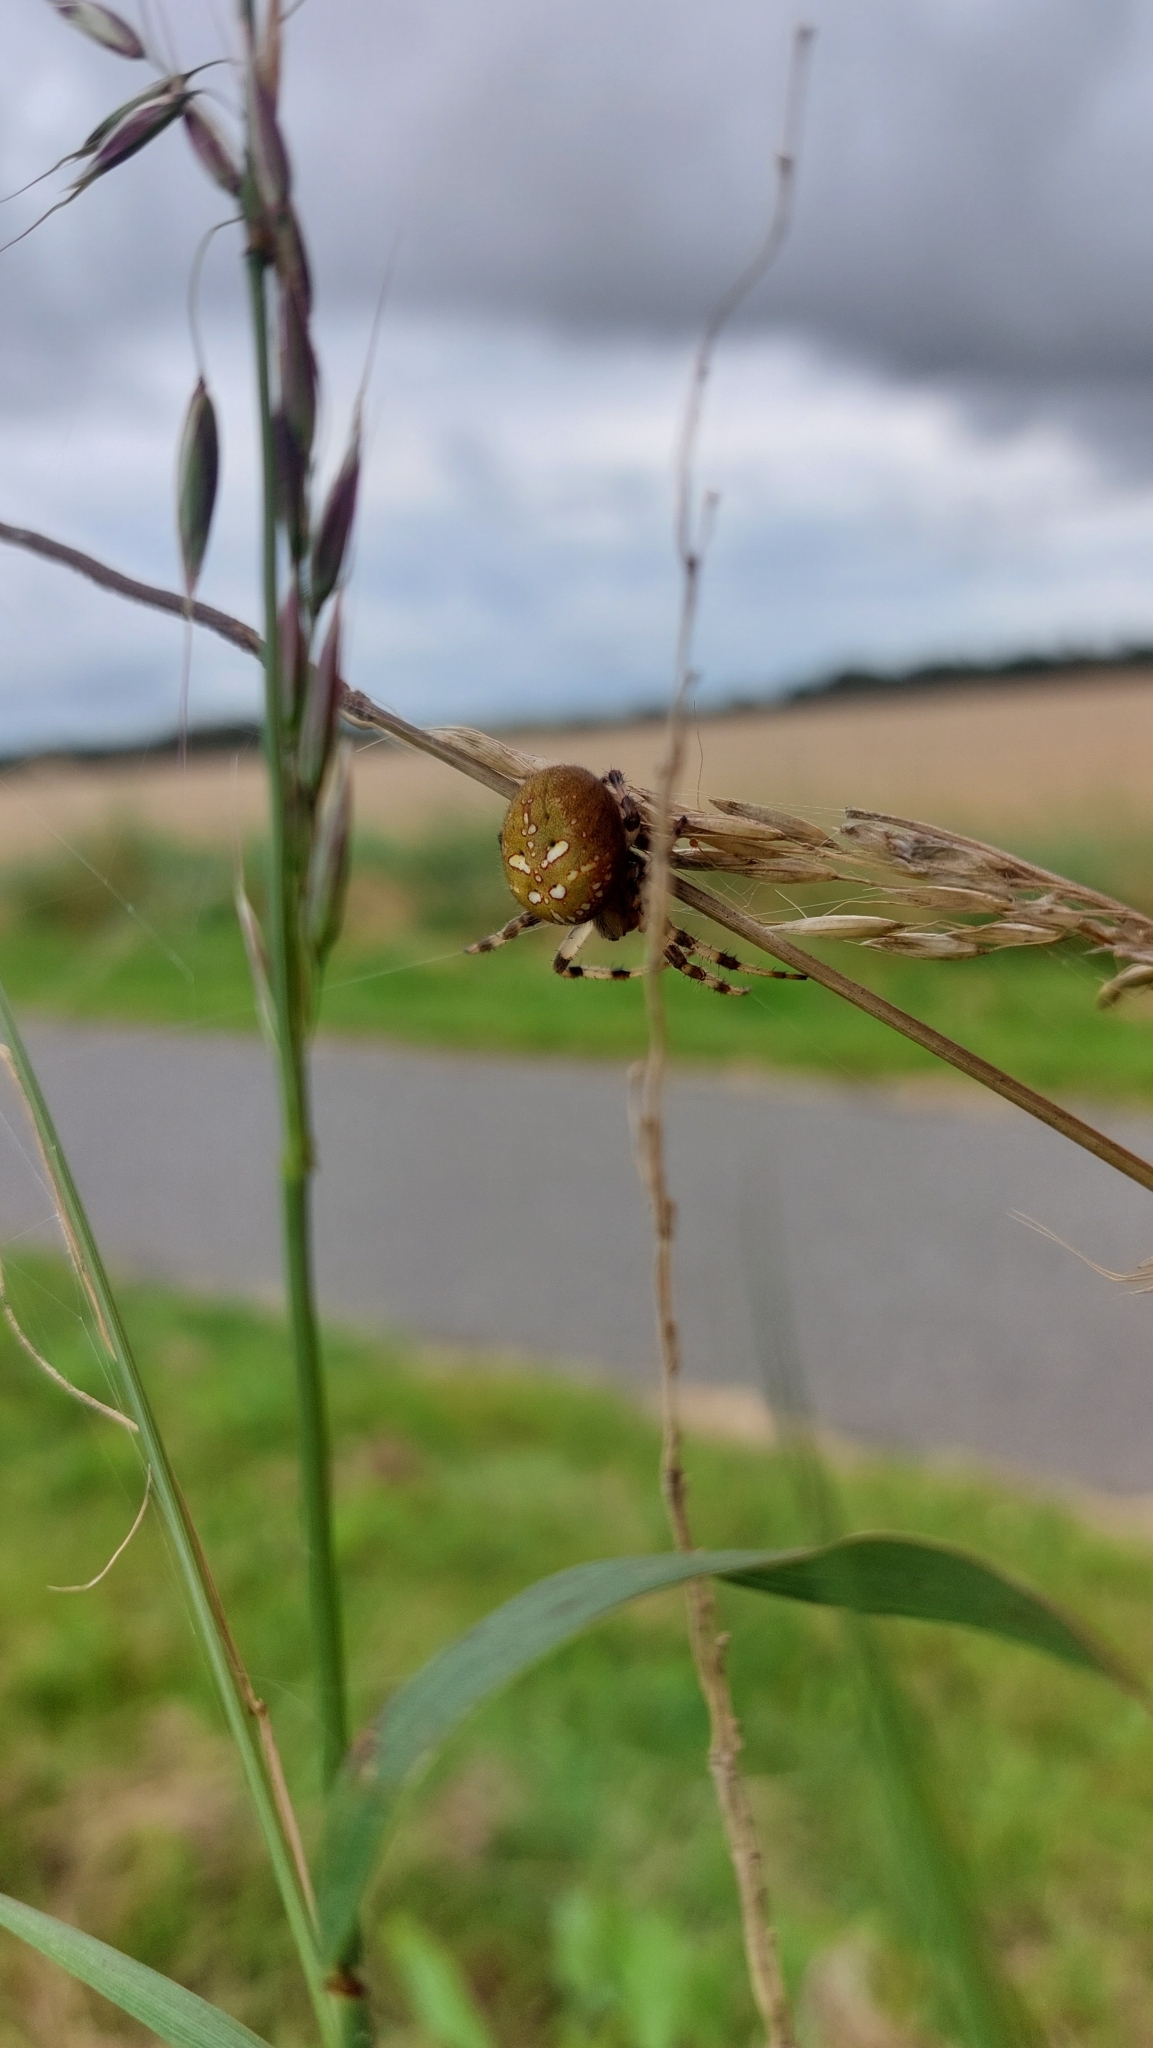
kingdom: Animalia
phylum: Arthropoda
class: Arachnida
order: Araneae
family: Araneidae
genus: Araneus
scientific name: Araneus quadratus
